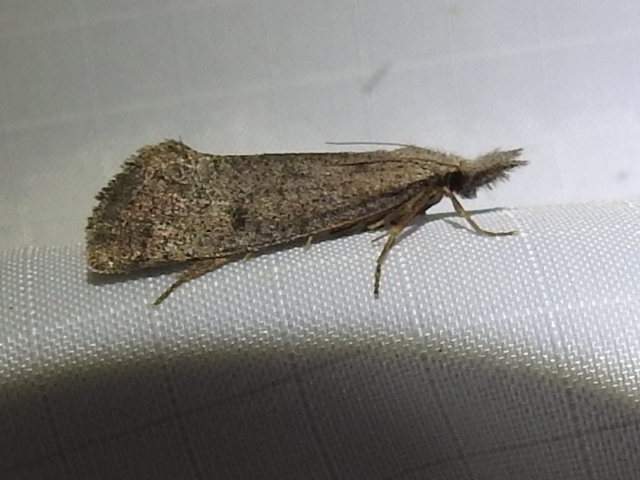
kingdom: Animalia
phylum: Arthropoda
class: Insecta
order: Lepidoptera
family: Tineidae
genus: Acrolophus
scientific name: Acrolophus mortipennella
